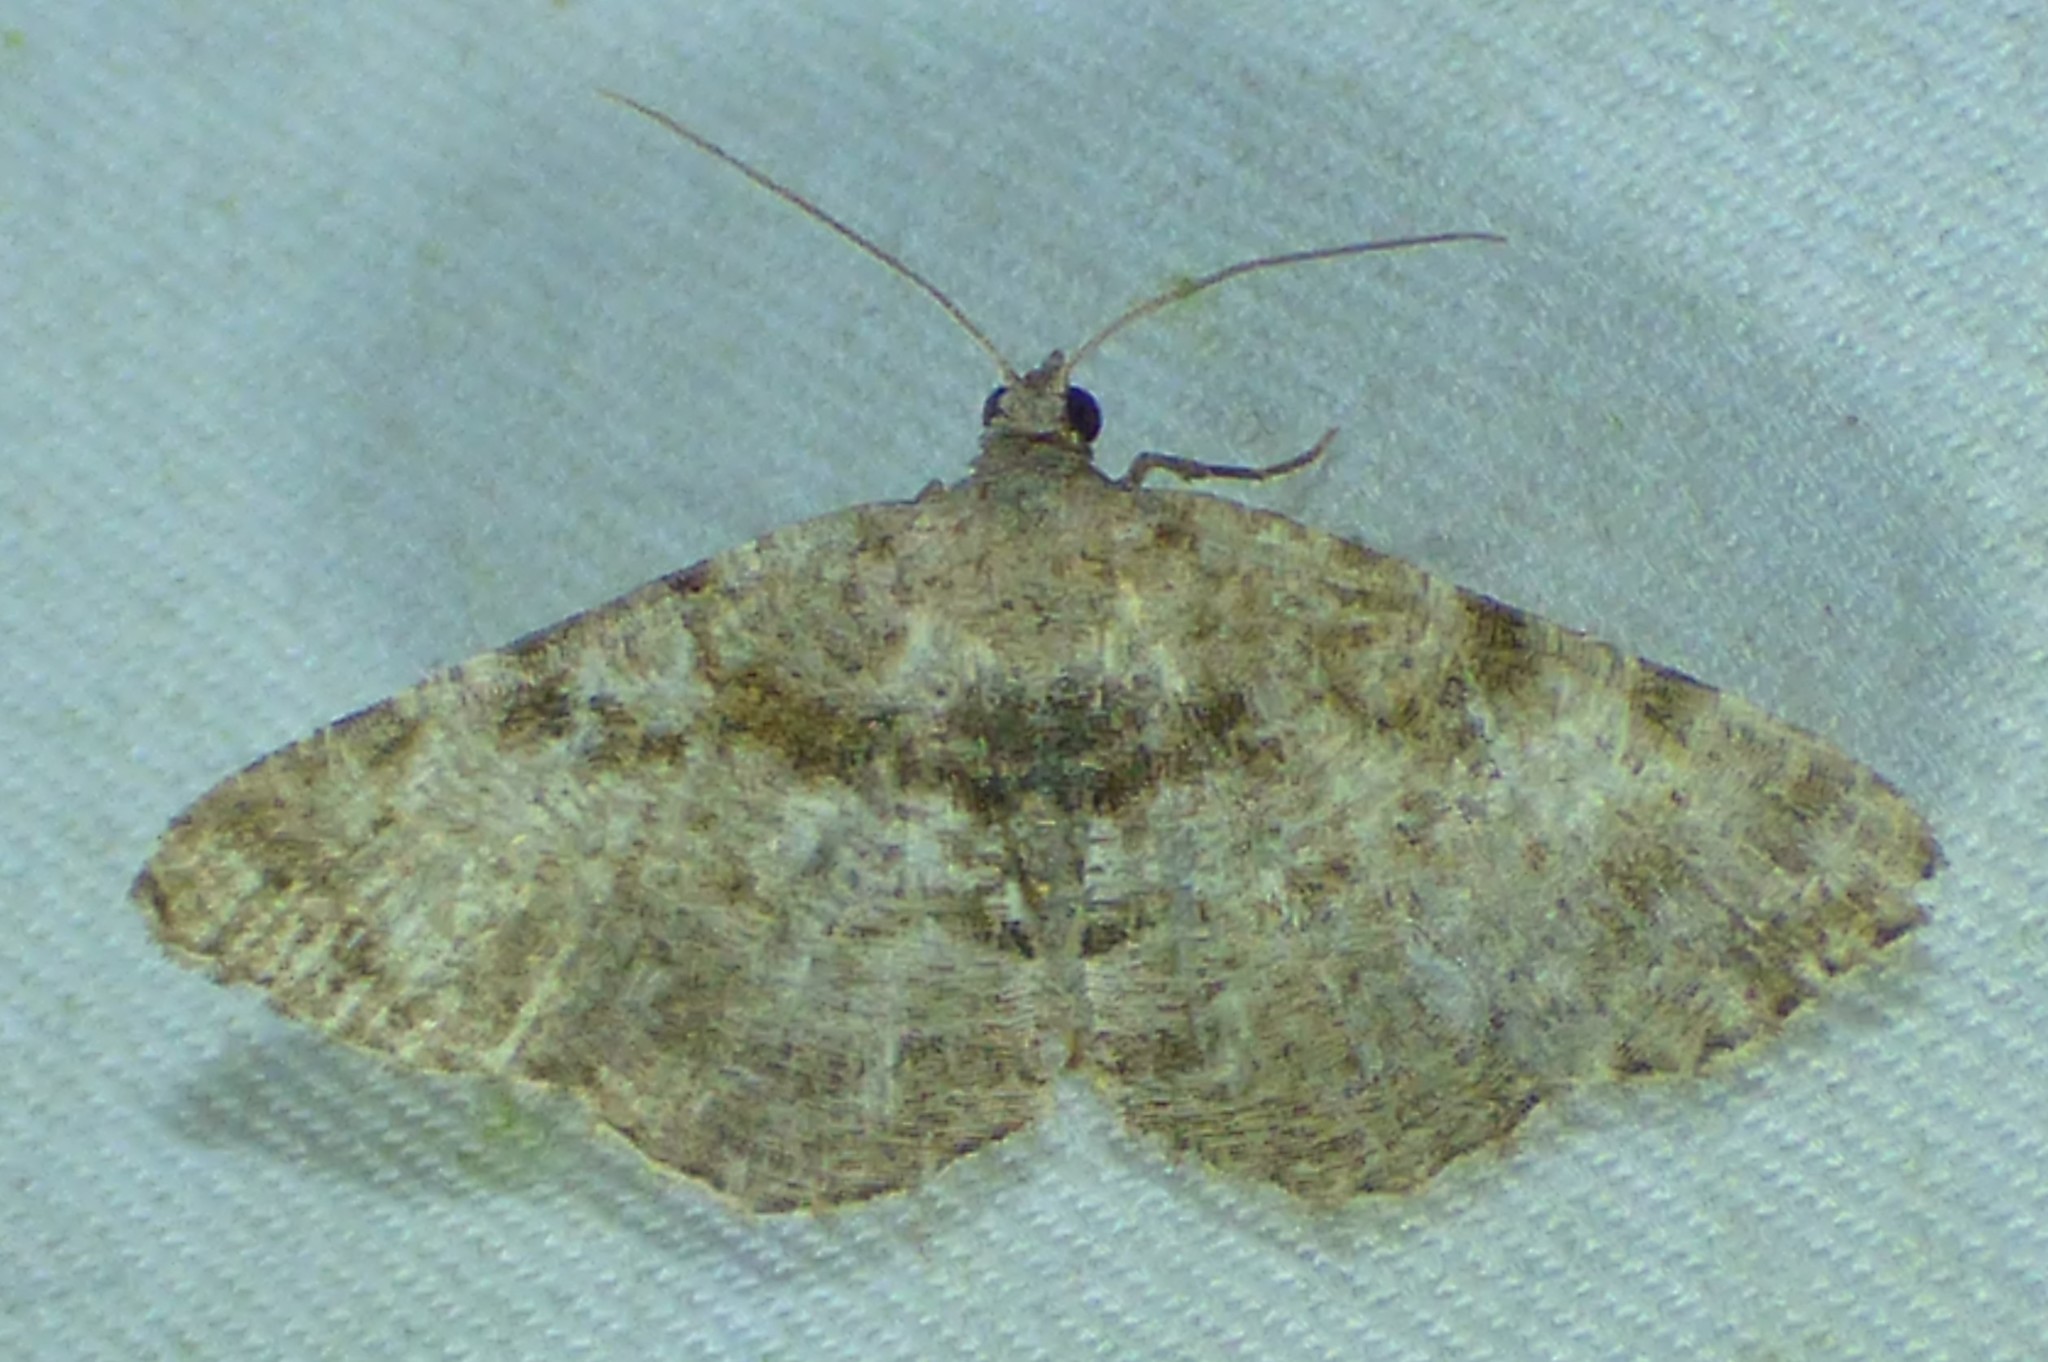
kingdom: Animalia
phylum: Arthropoda
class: Insecta
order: Lepidoptera
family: Geometridae
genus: Digrammia
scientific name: Digrammia gnophosaria
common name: Hollow-spotted angle
